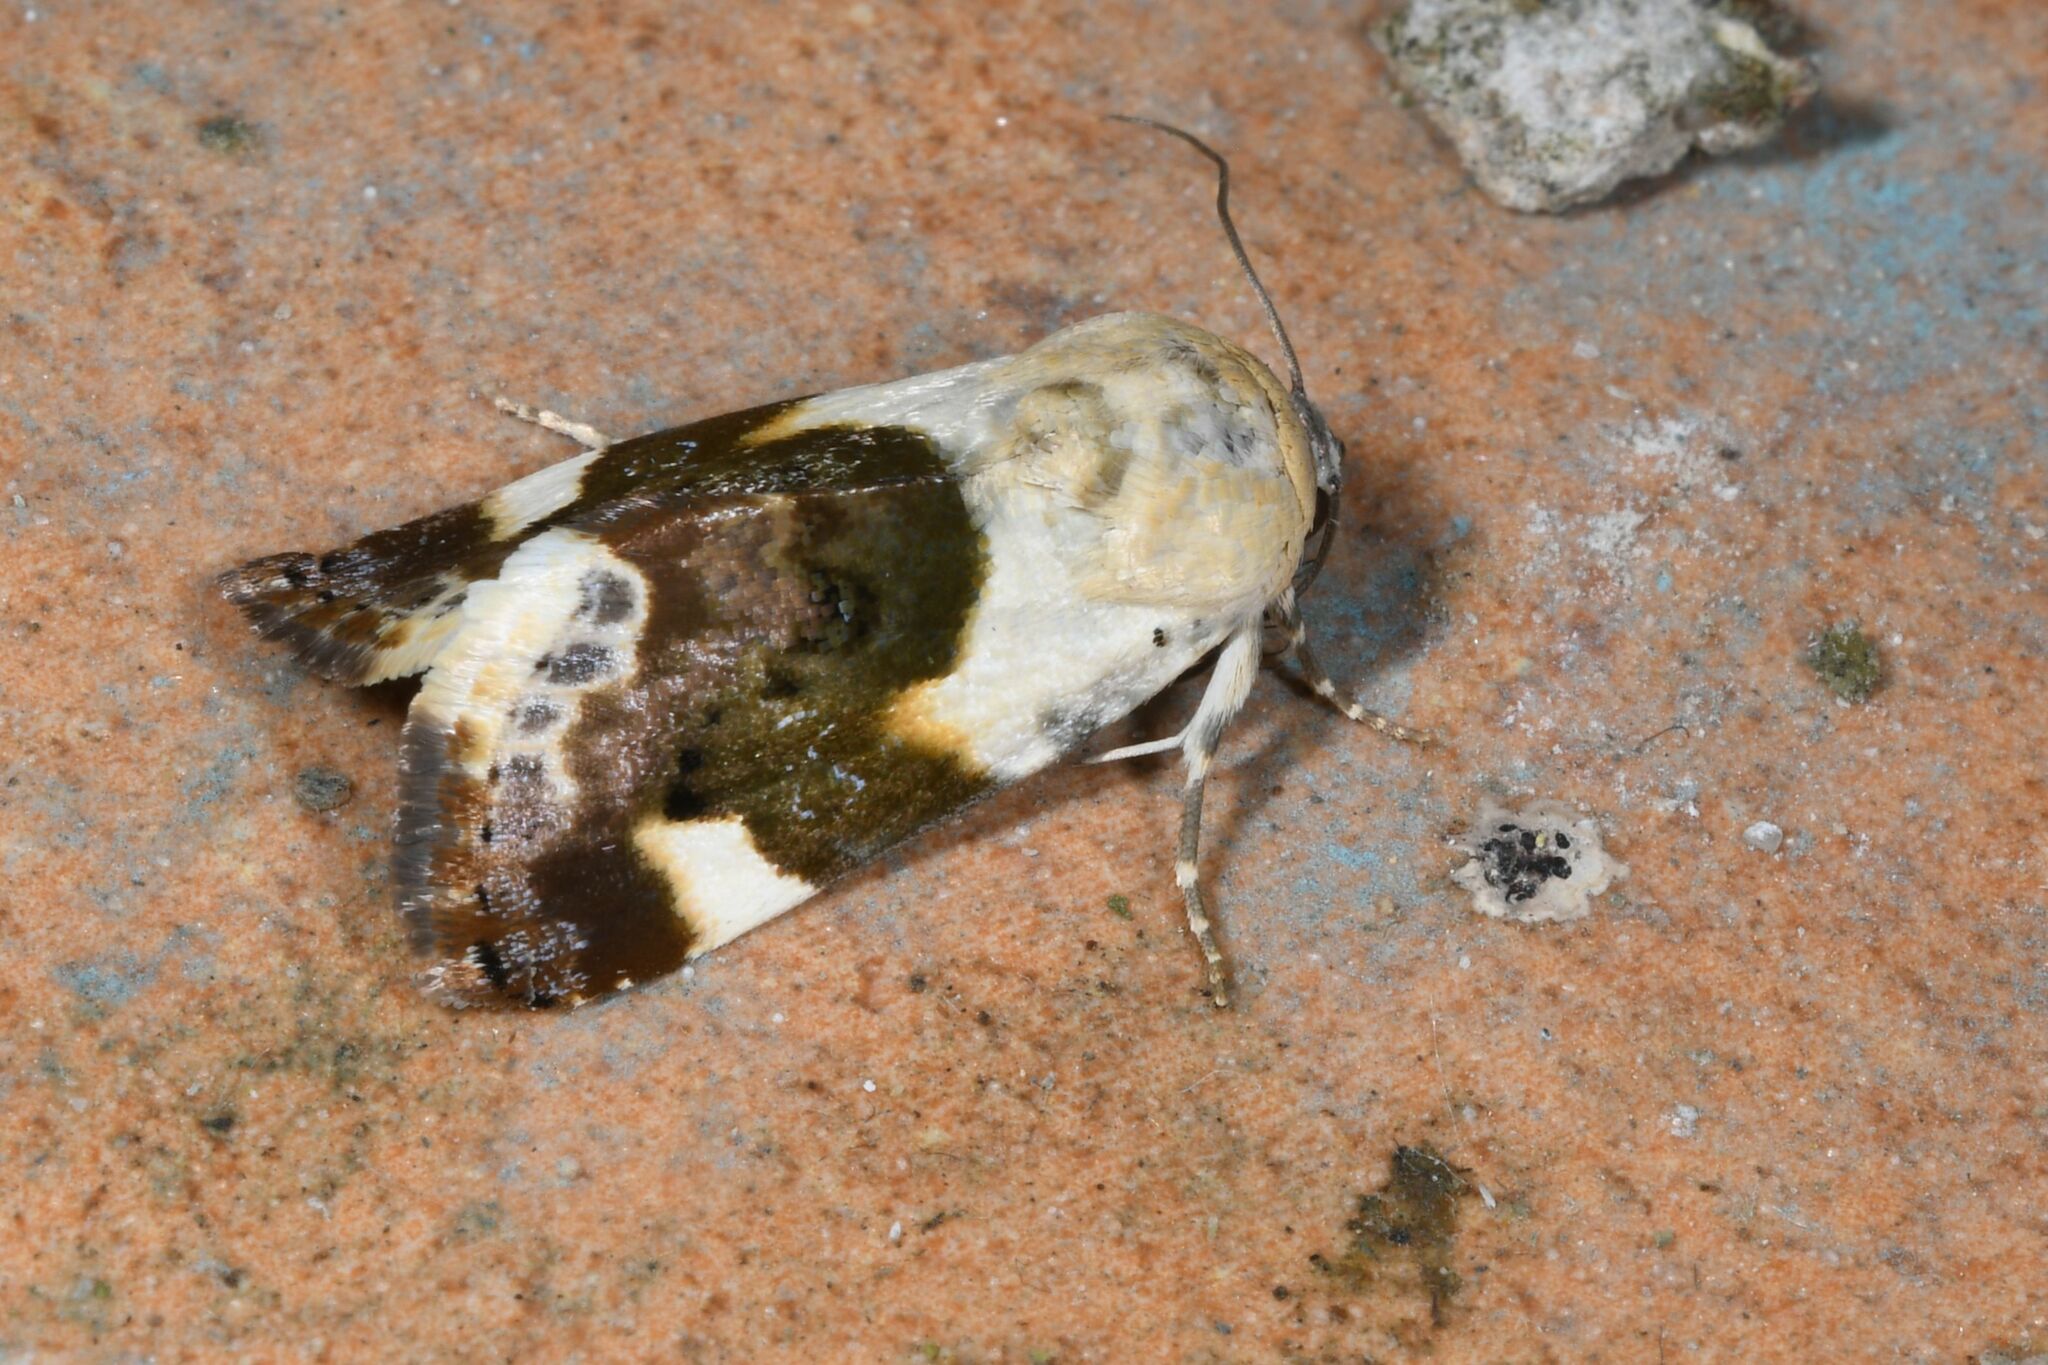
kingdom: Animalia
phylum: Arthropoda
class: Insecta
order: Lepidoptera
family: Noctuidae
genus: Acontia
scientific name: Acontia lucida
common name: Pale shoulder
